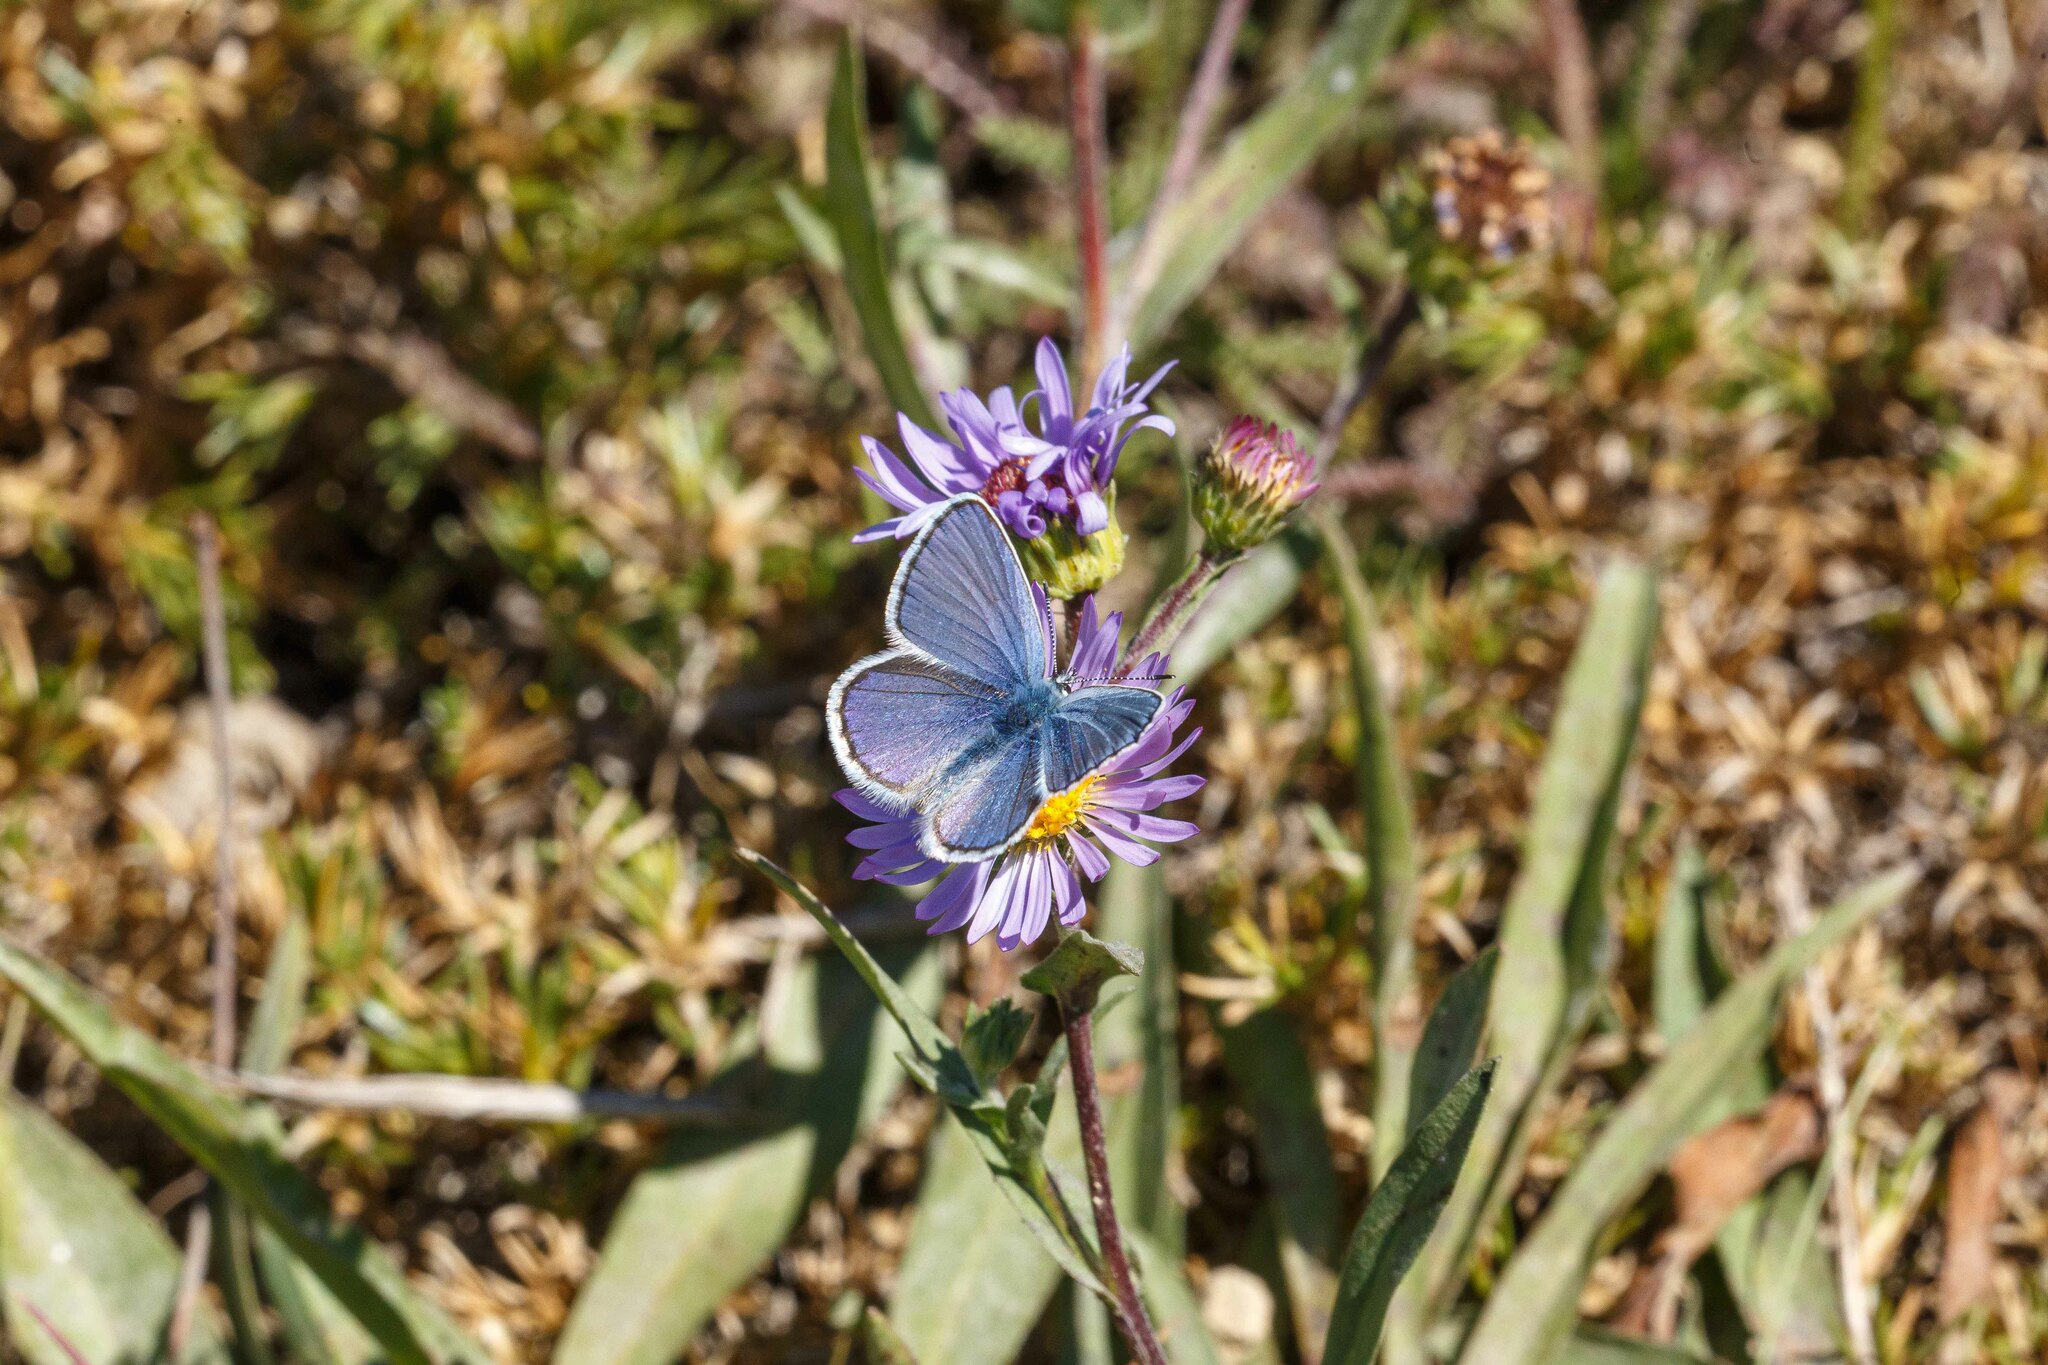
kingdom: Animalia
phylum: Arthropoda
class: Insecta
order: Lepidoptera
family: Lycaenidae
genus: Lycaeides
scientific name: Lycaeides anna
